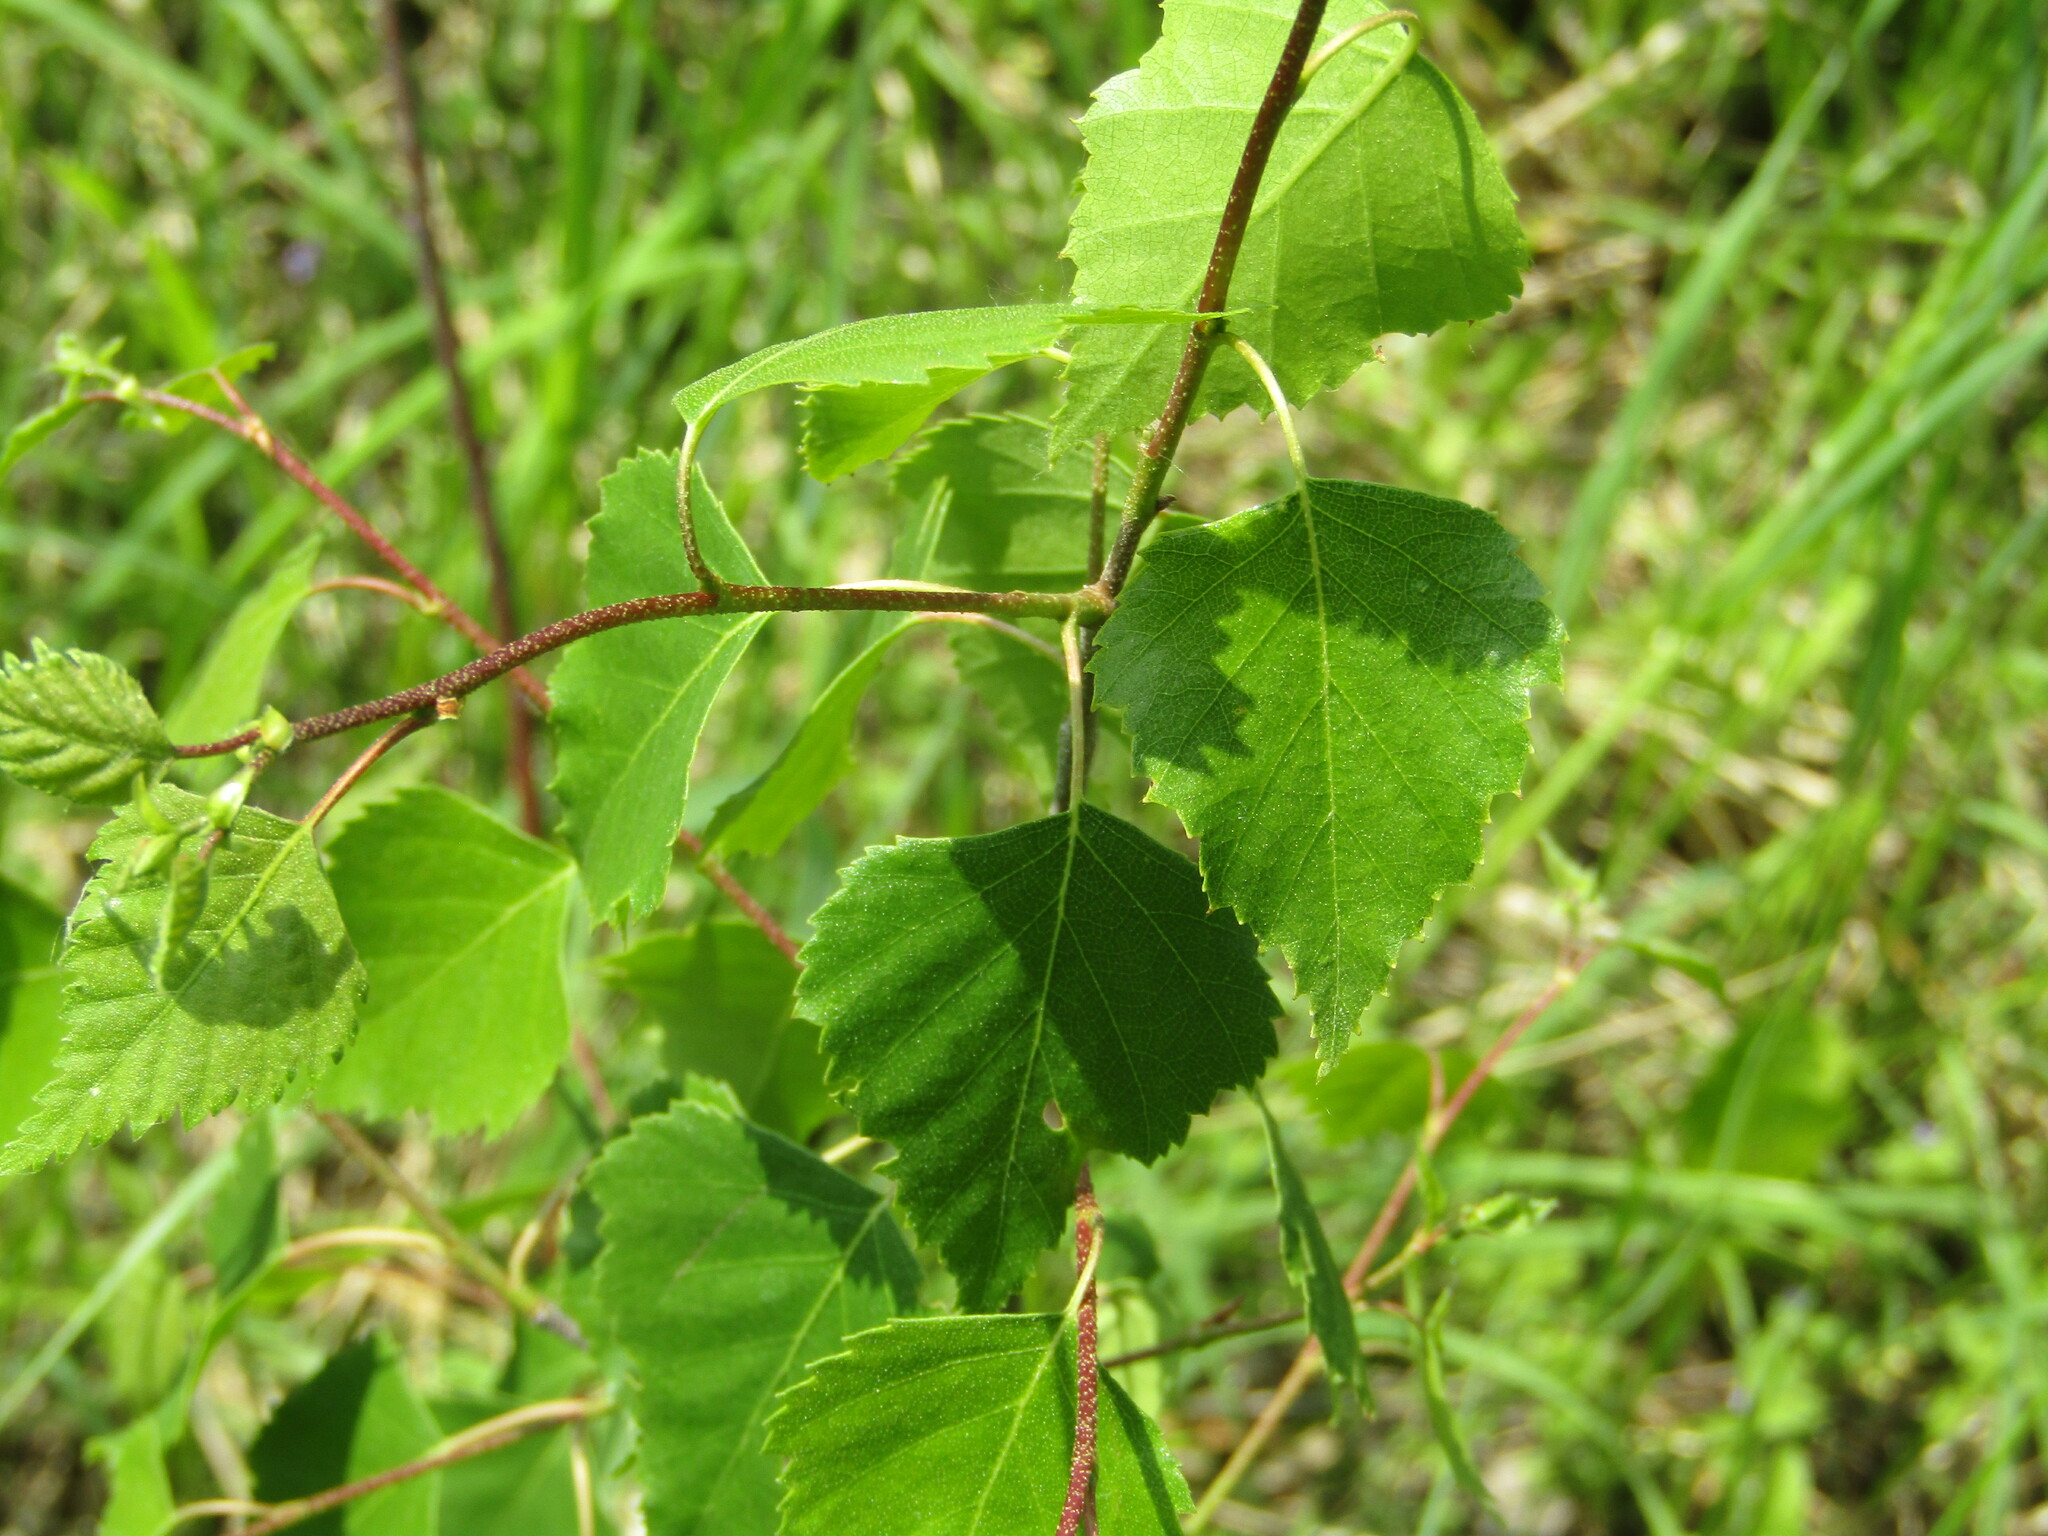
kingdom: Plantae
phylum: Tracheophyta
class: Magnoliopsida
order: Fagales
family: Betulaceae
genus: Betula
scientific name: Betula pendula
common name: Silver birch
